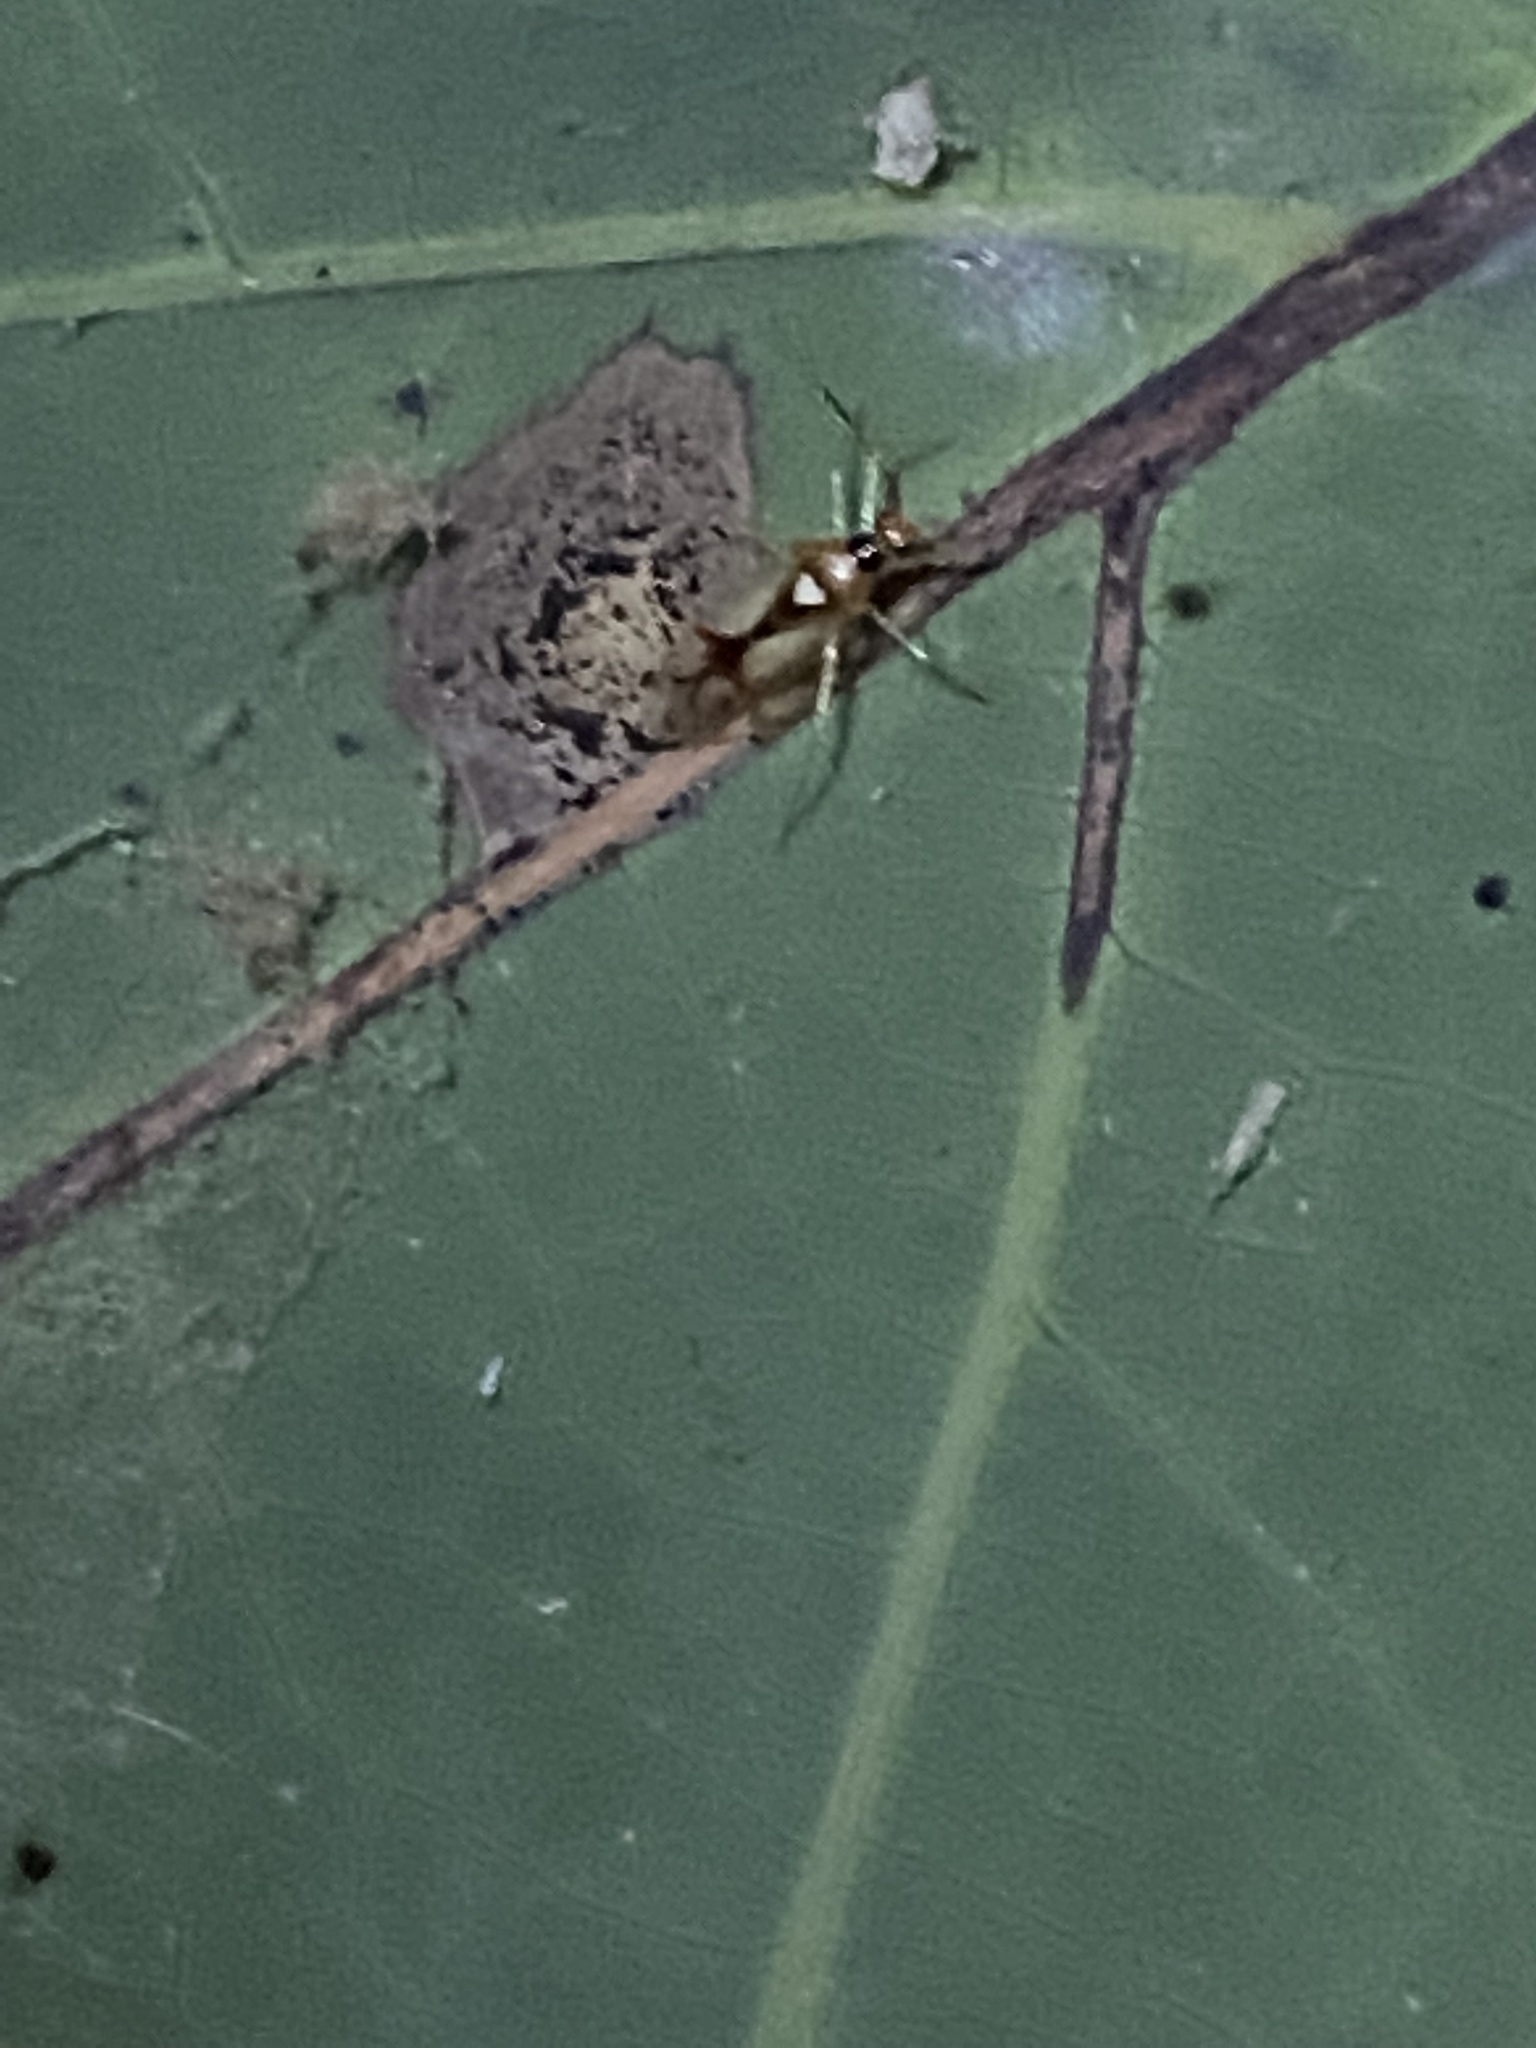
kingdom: Animalia
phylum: Arthropoda
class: Insecta
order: Hemiptera
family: Miridae
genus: Hyaliodes
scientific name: Hyaliodes harti
